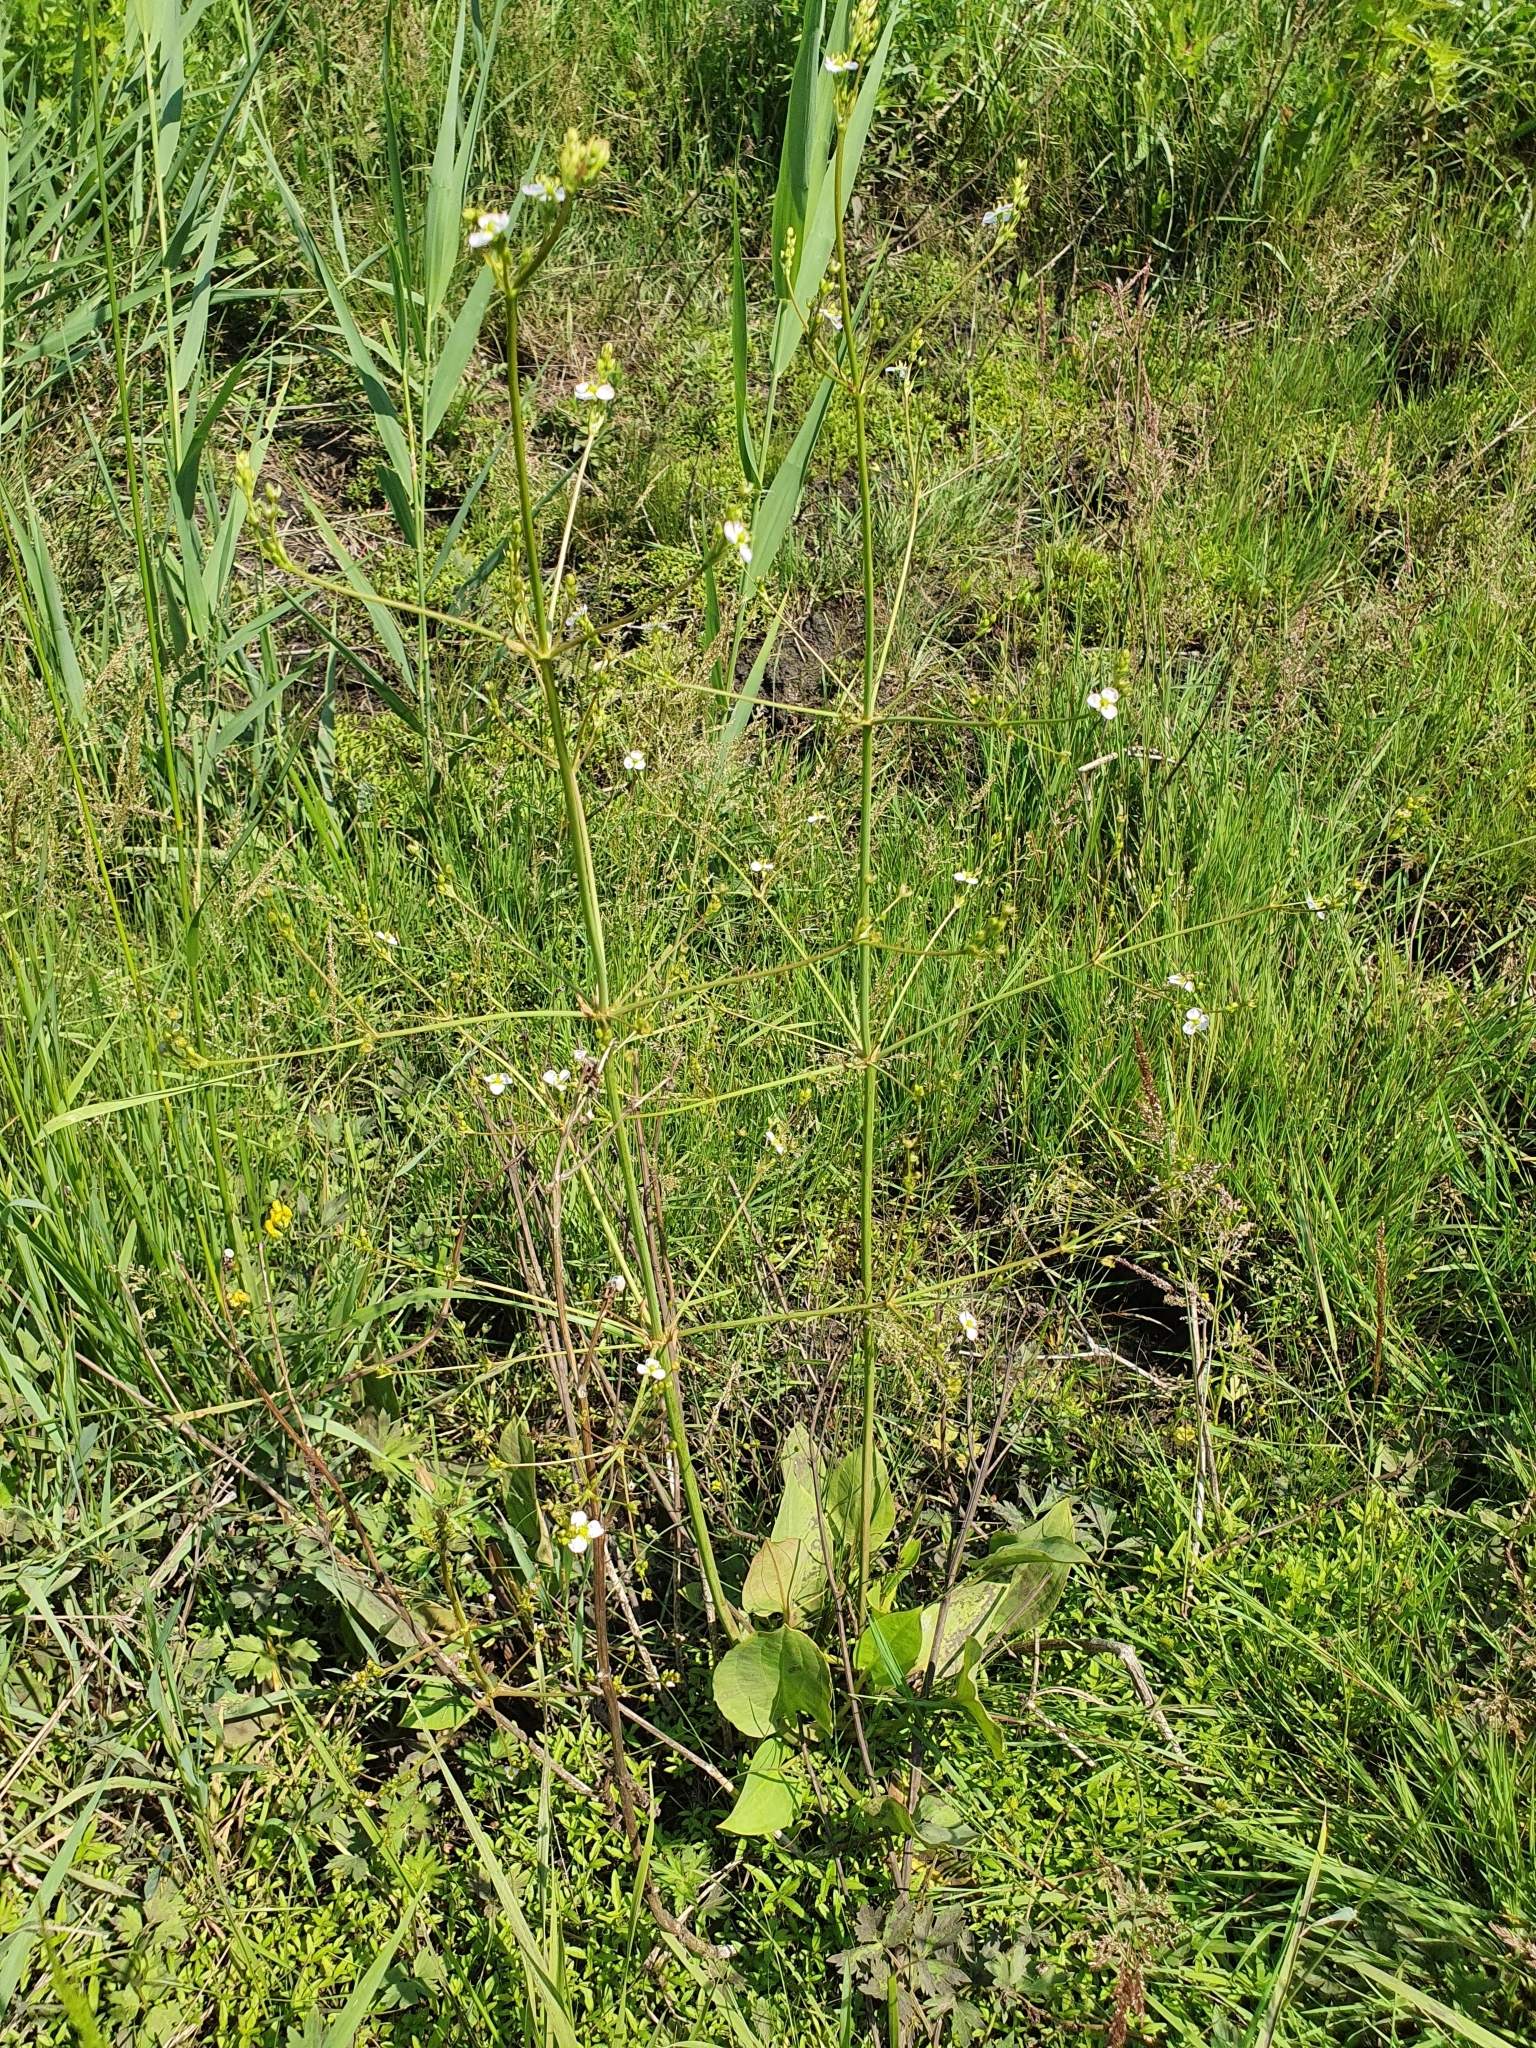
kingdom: Plantae
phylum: Tracheophyta
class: Liliopsida
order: Alismatales
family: Alismataceae
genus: Alisma
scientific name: Alisma plantago-aquatica
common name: Water-plantain
